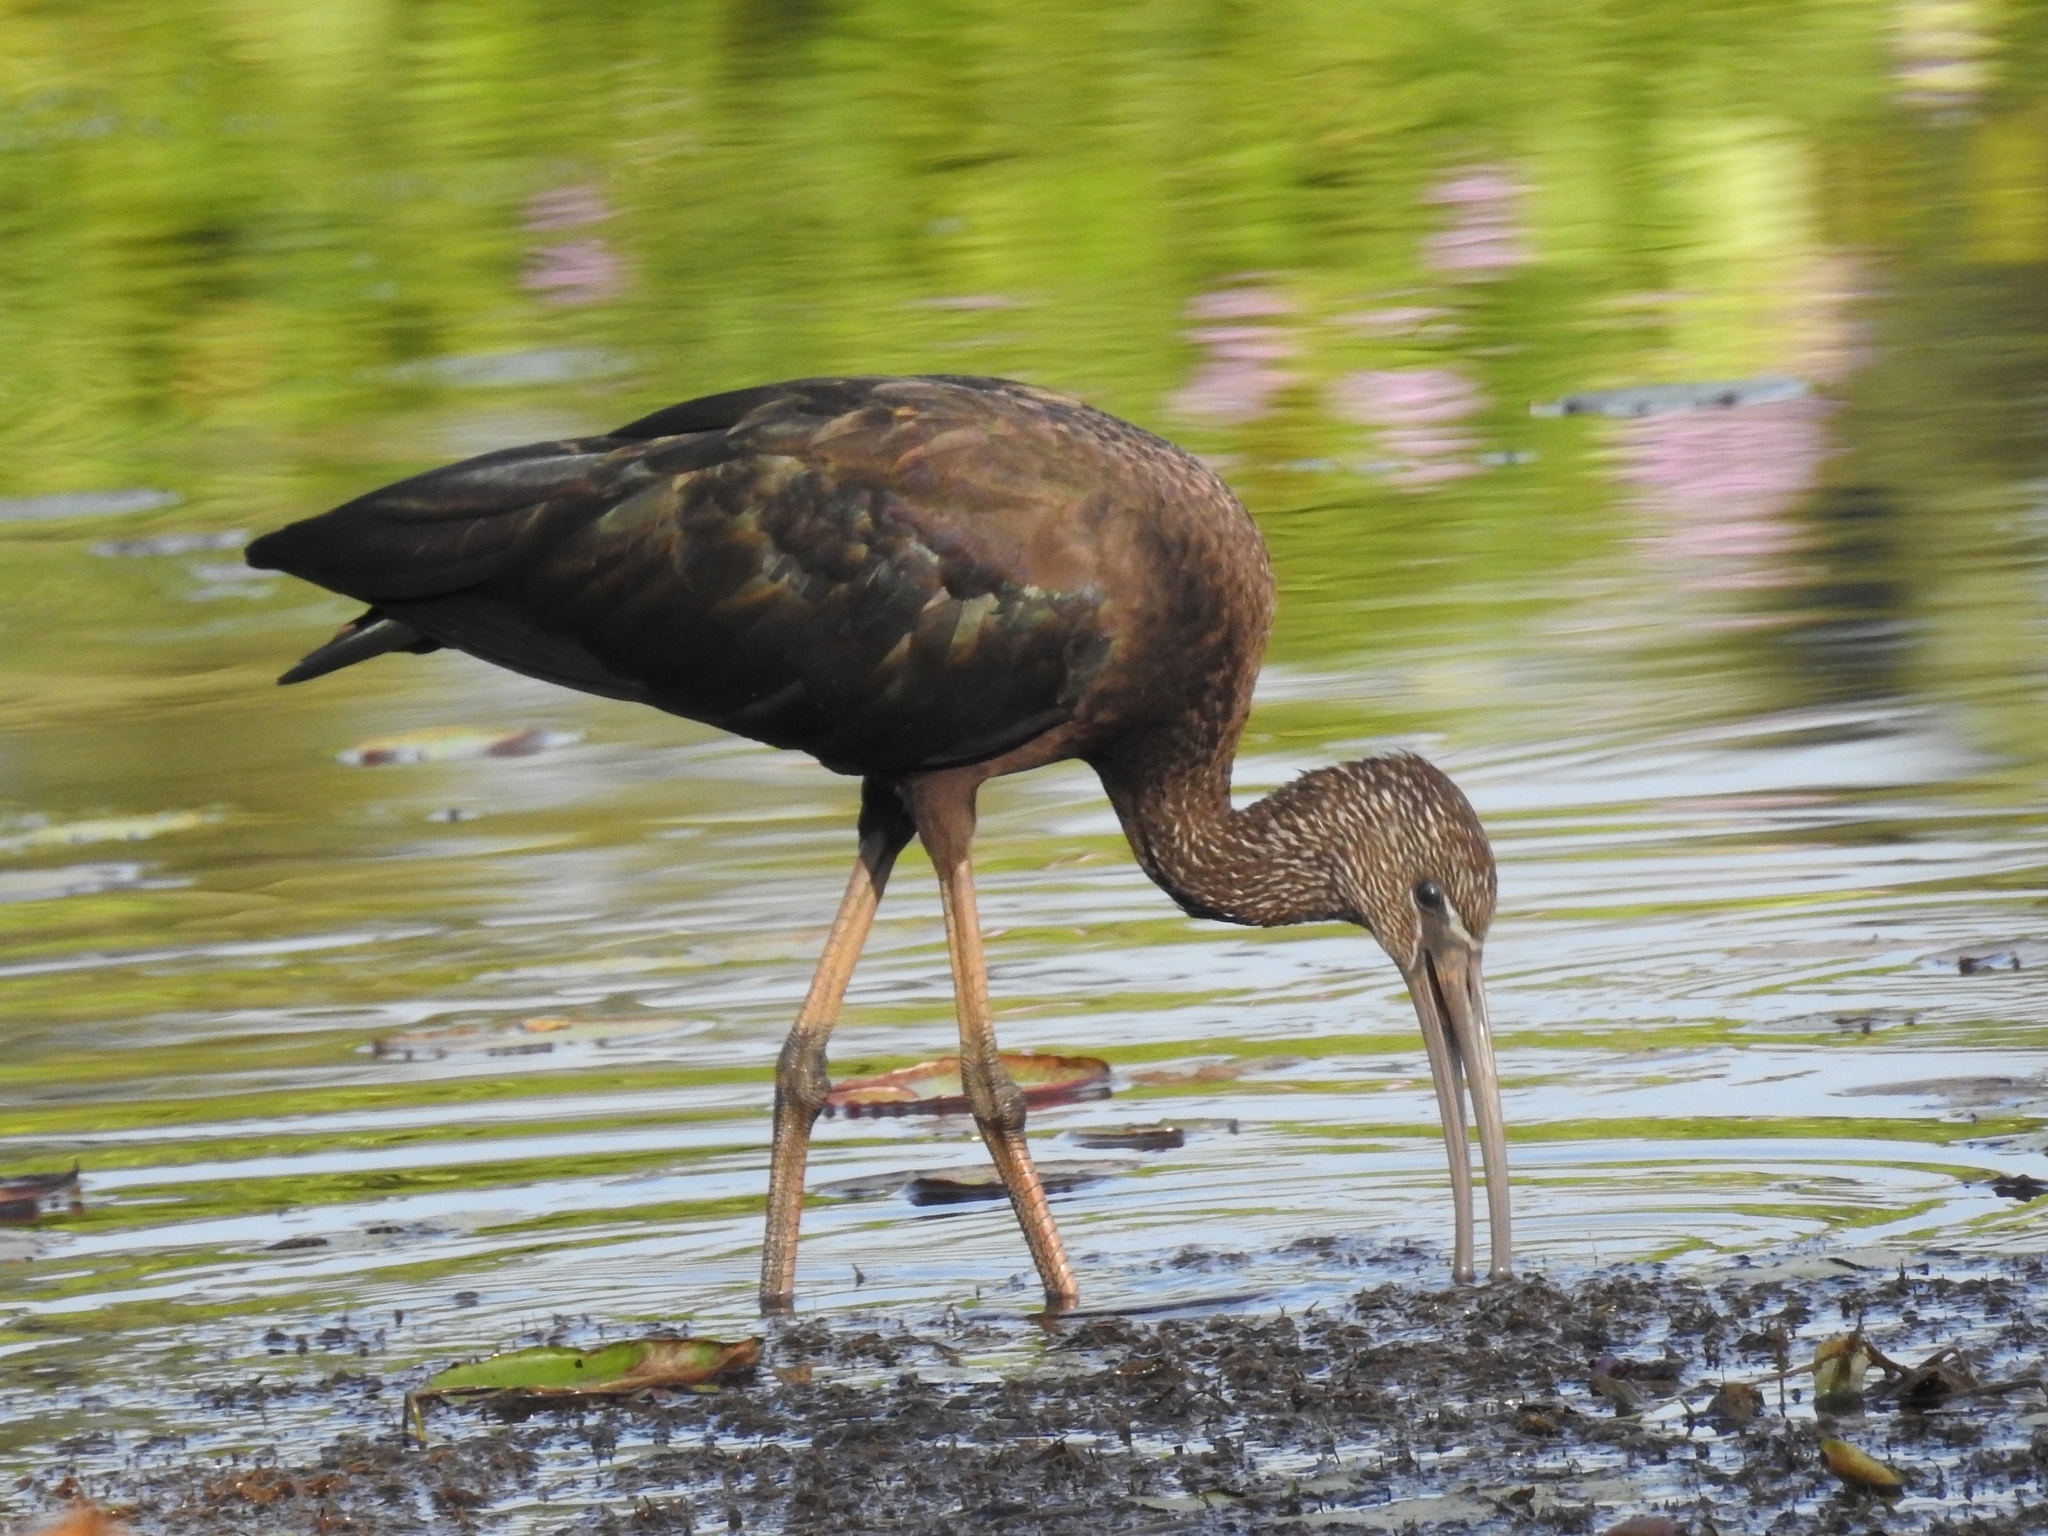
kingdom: Animalia
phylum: Chordata
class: Aves
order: Pelecaniformes
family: Threskiornithidae
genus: Plegadis
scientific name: Plegadis falcinellus
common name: Glossy ibis
